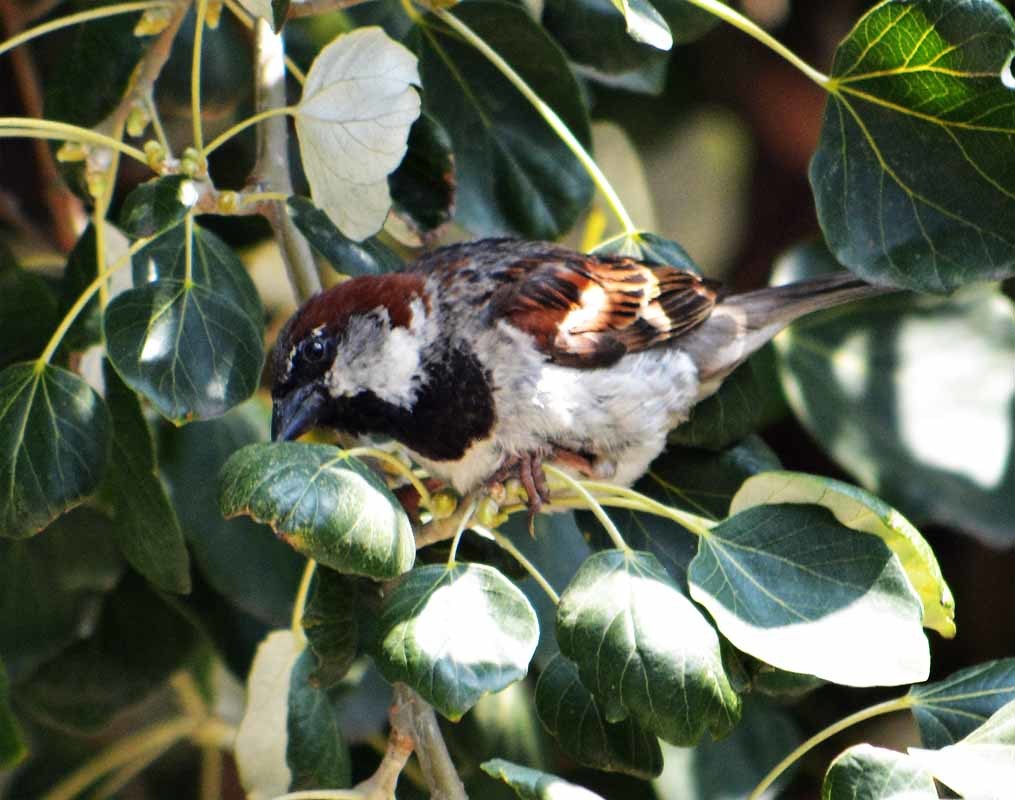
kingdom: Animalia
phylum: Chordata
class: Aves
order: Passeriformes
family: Passeridae
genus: Passer
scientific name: Passer domesticus
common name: House sparrow
